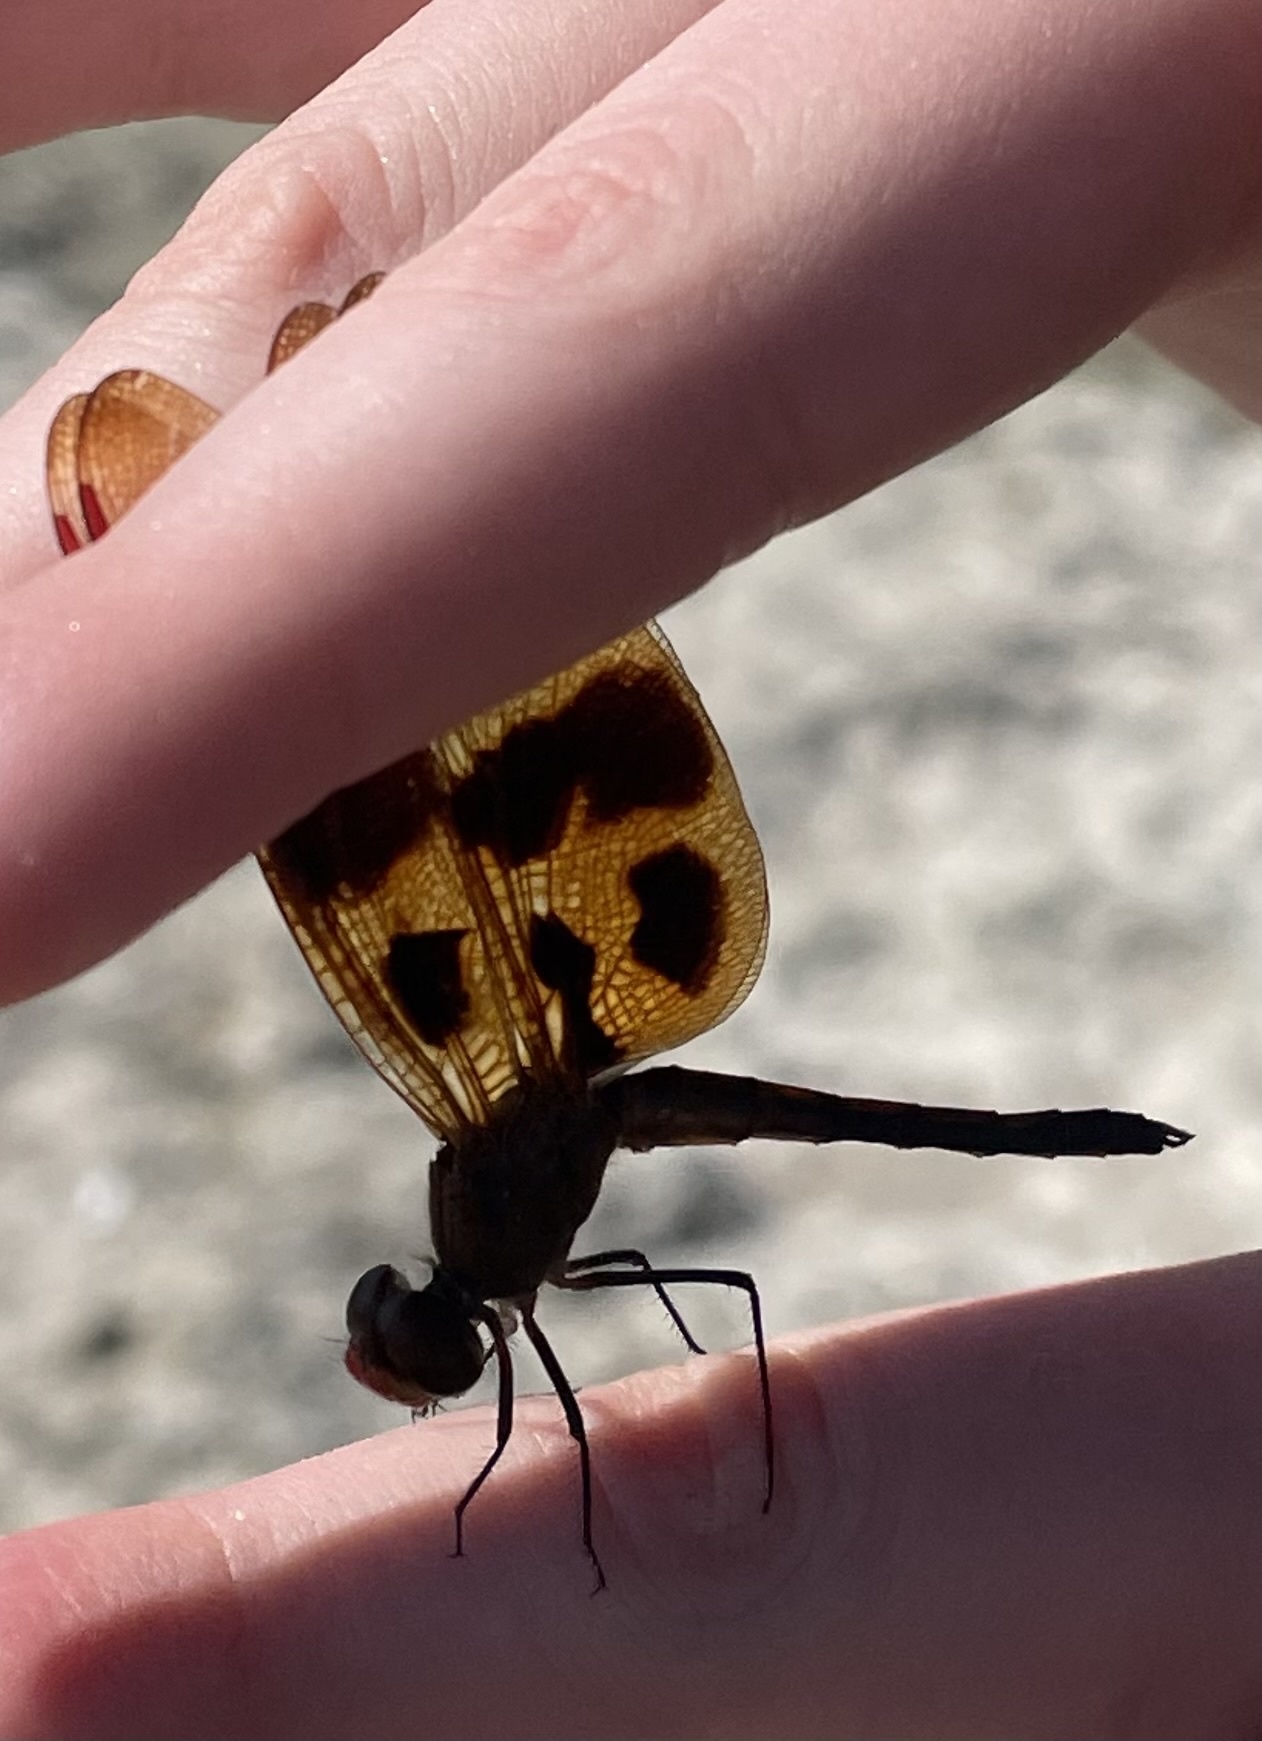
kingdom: Animalia
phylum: Arthropoda
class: Insecta
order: Odonata
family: Libellulidae
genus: Celithemis
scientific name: Celithemis eponina
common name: Halloween pennant
